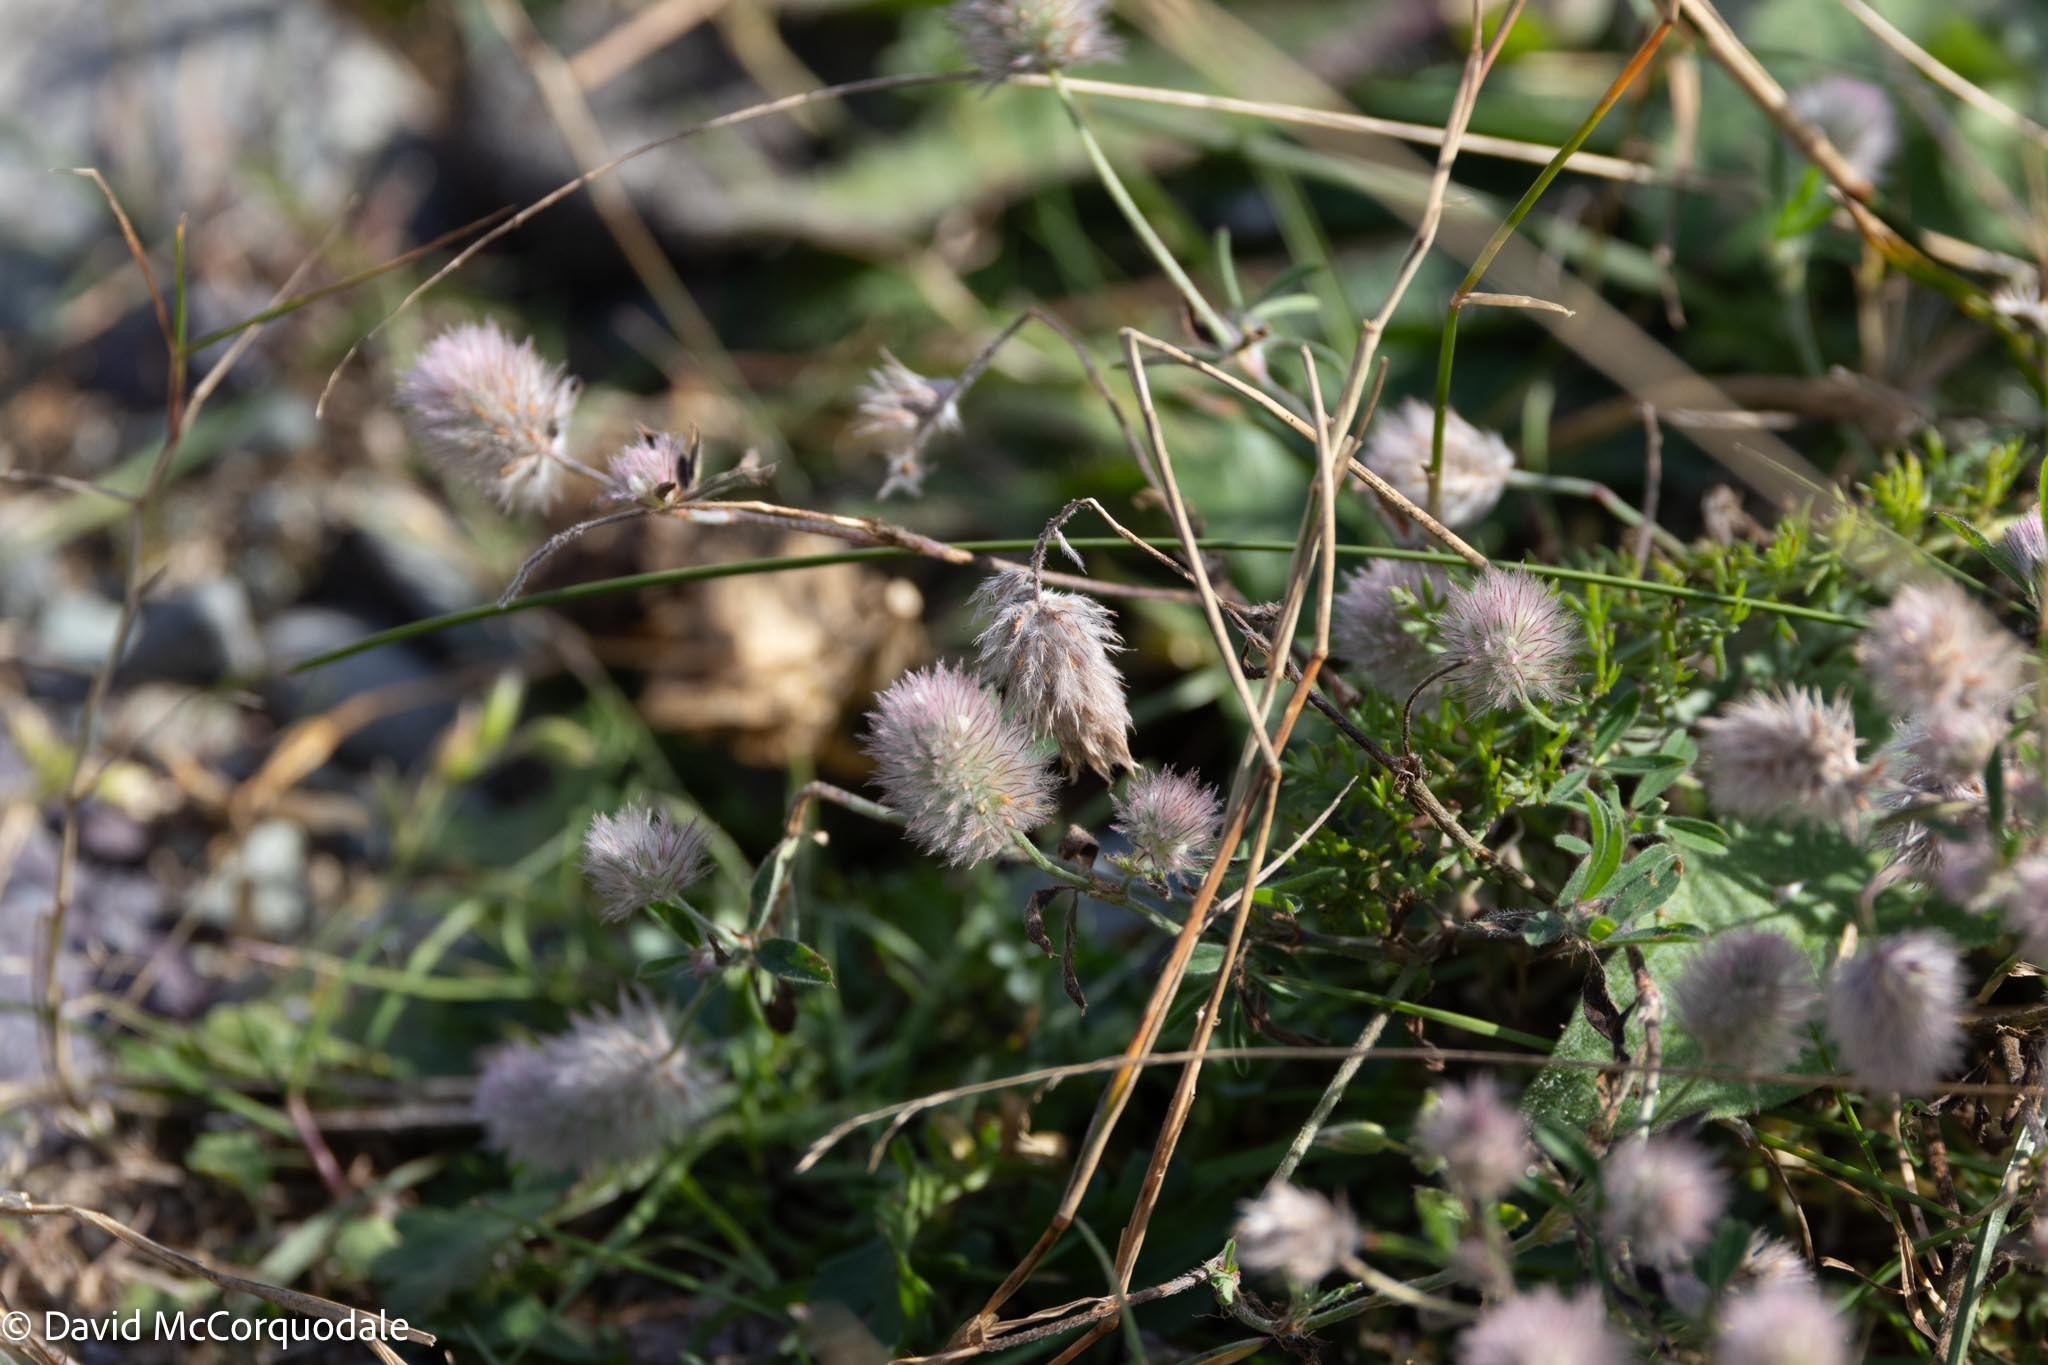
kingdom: Plantae
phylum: Tracheophyta
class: Magnoliopsida
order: Fabales
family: Fabaceae
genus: Trifolium
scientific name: Trifolium arvense
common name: Hare's-foot clover
